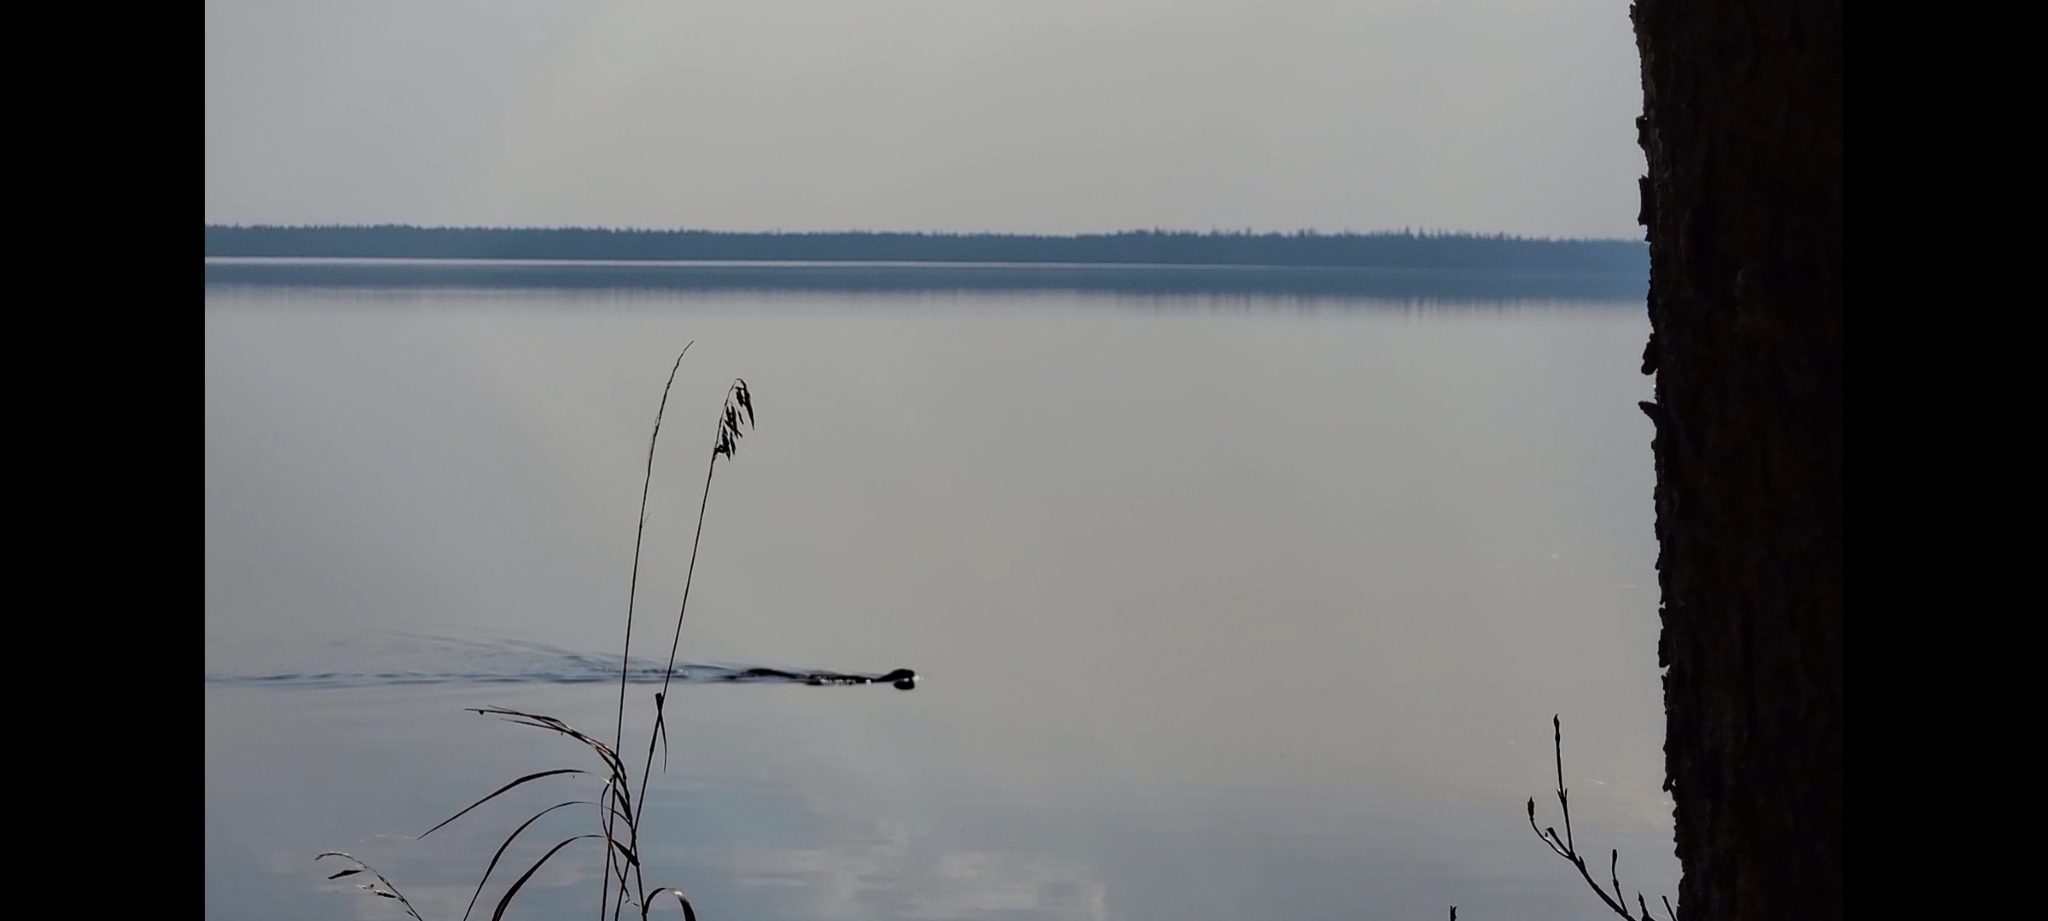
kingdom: Animalia
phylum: Chordata
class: Mammalia
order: Carnivora
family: Mustelidae
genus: Lontra
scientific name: Lontra canadensis
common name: North american river otter
